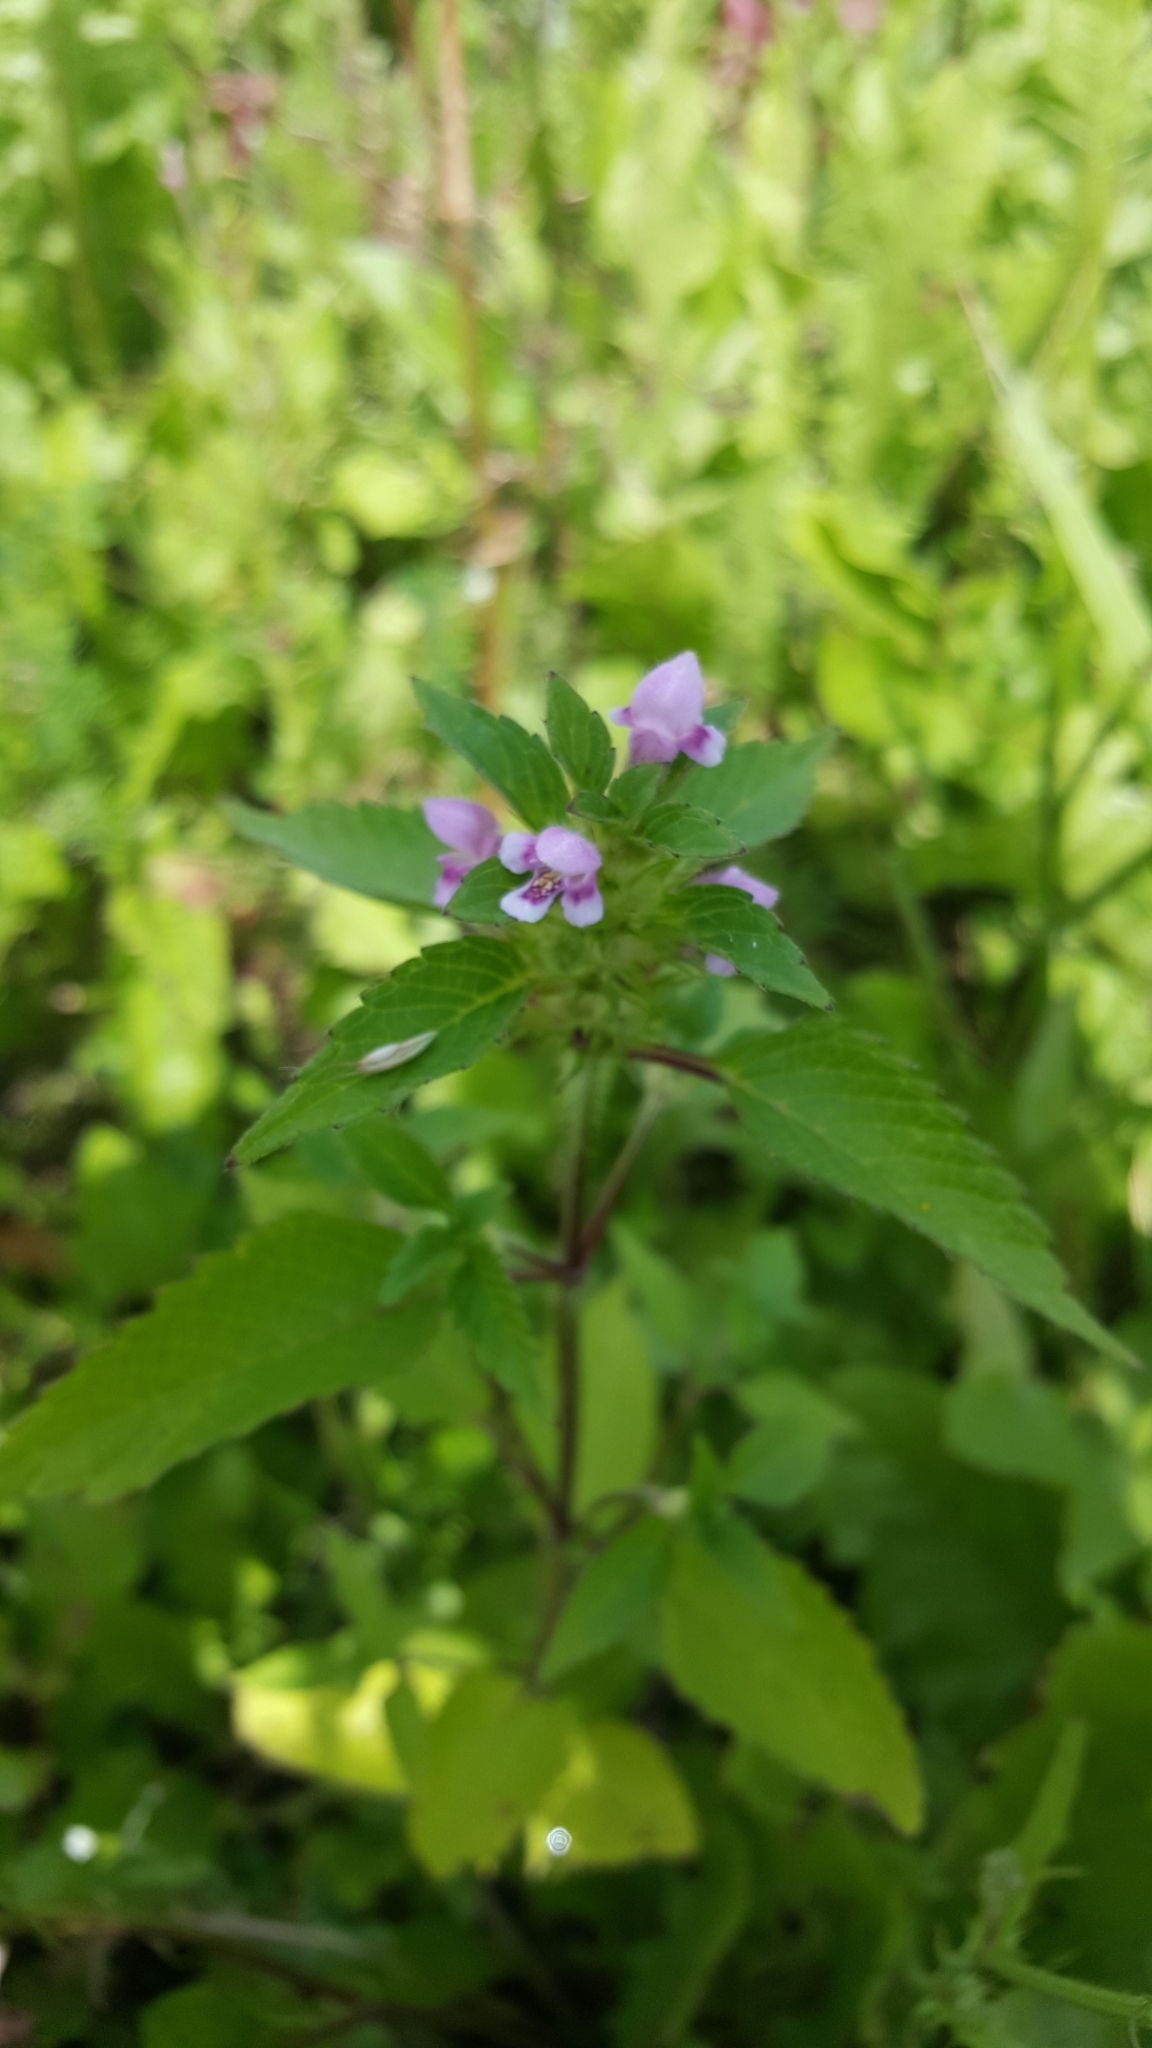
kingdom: Plantae
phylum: Tracheophyta
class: Magnoliopsida
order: Lamiales
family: Lamiaceae
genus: Galeopsis
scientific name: Galeopsis tetrahit
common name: Common hemp-nettle
